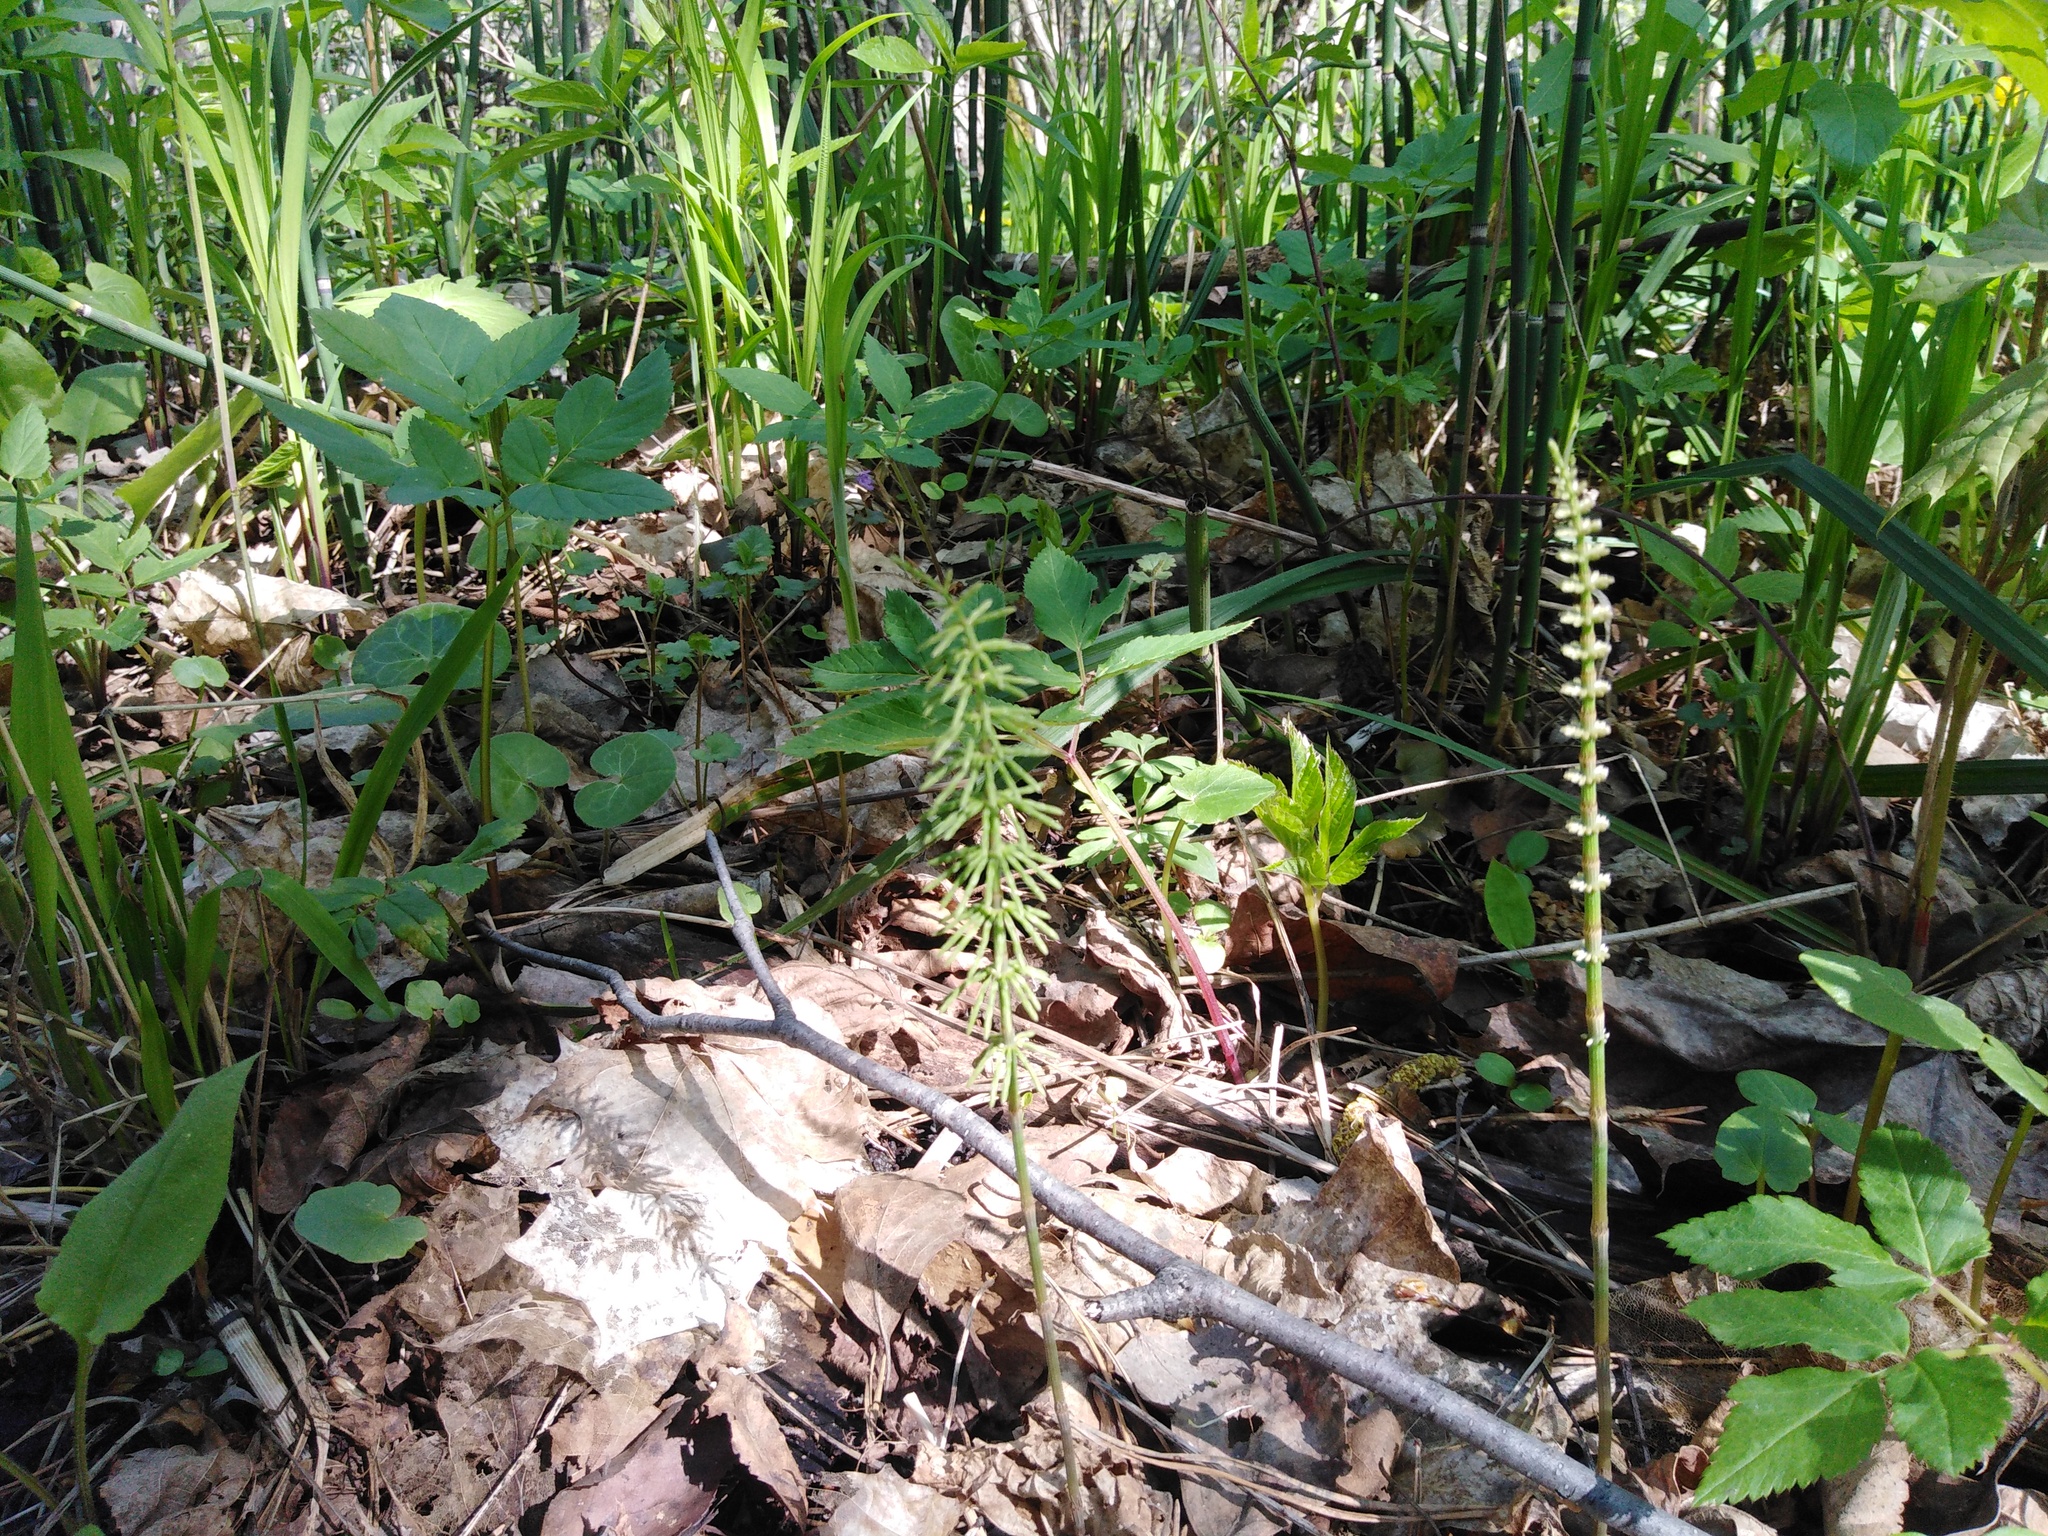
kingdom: Plantae
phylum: Tracheophyta
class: Polypodiopsida
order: Equisetales
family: Equisetaceae
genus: Equisetum
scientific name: Equisetum pratense
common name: Meadow horsetail
